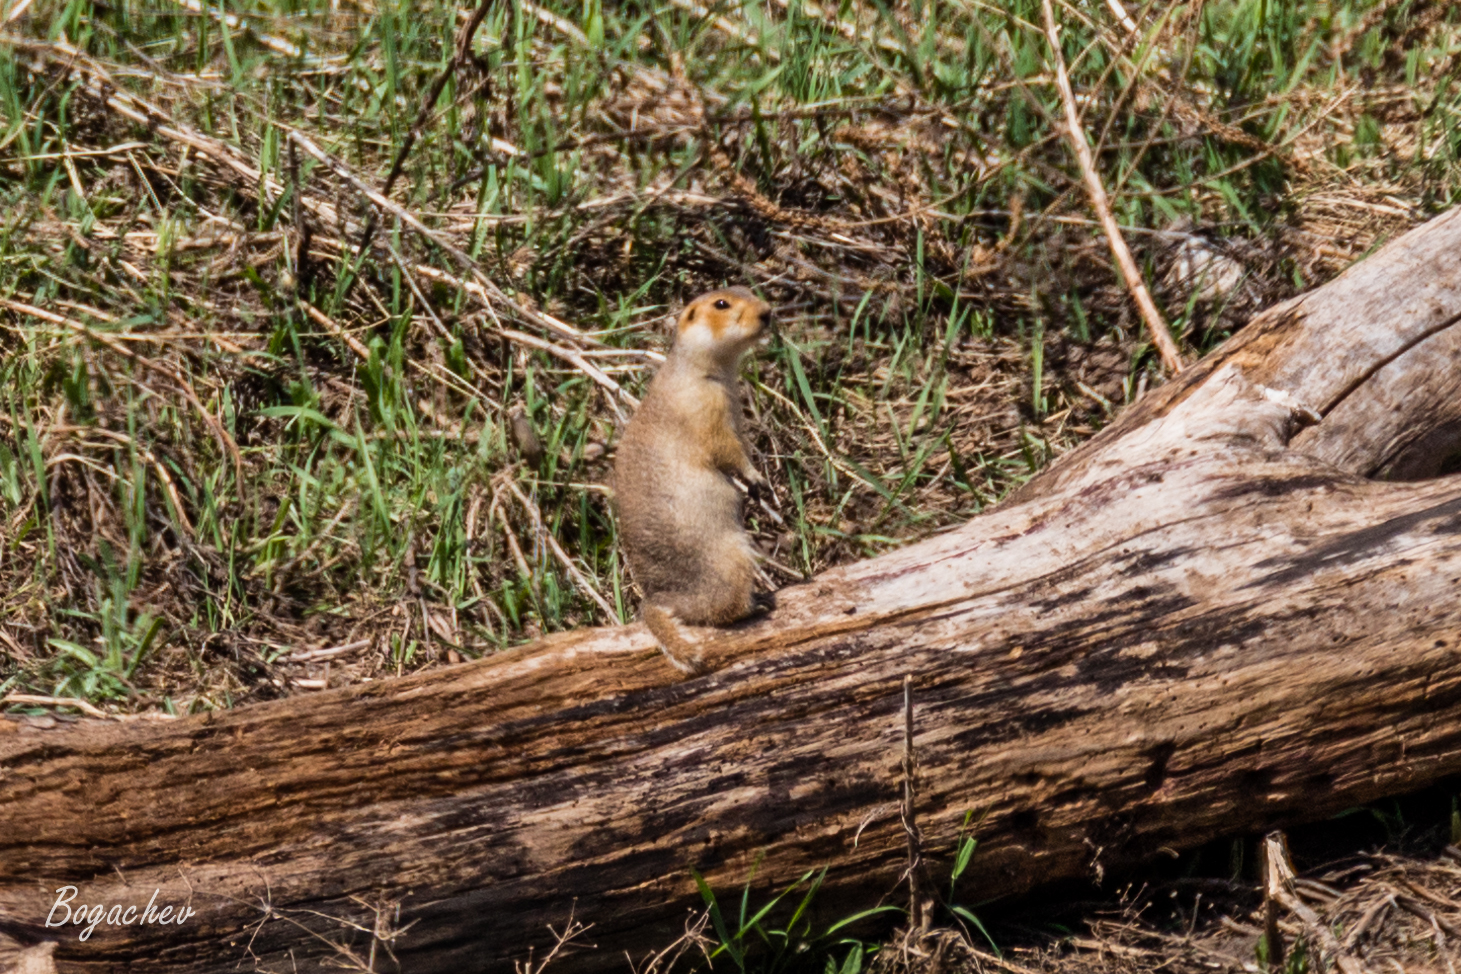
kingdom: Animalia
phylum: Chordata
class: Mammalia
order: Rodentia
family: Sciuridae
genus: Spermophilus
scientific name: Spermophilus major
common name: Russet ground squirrel
